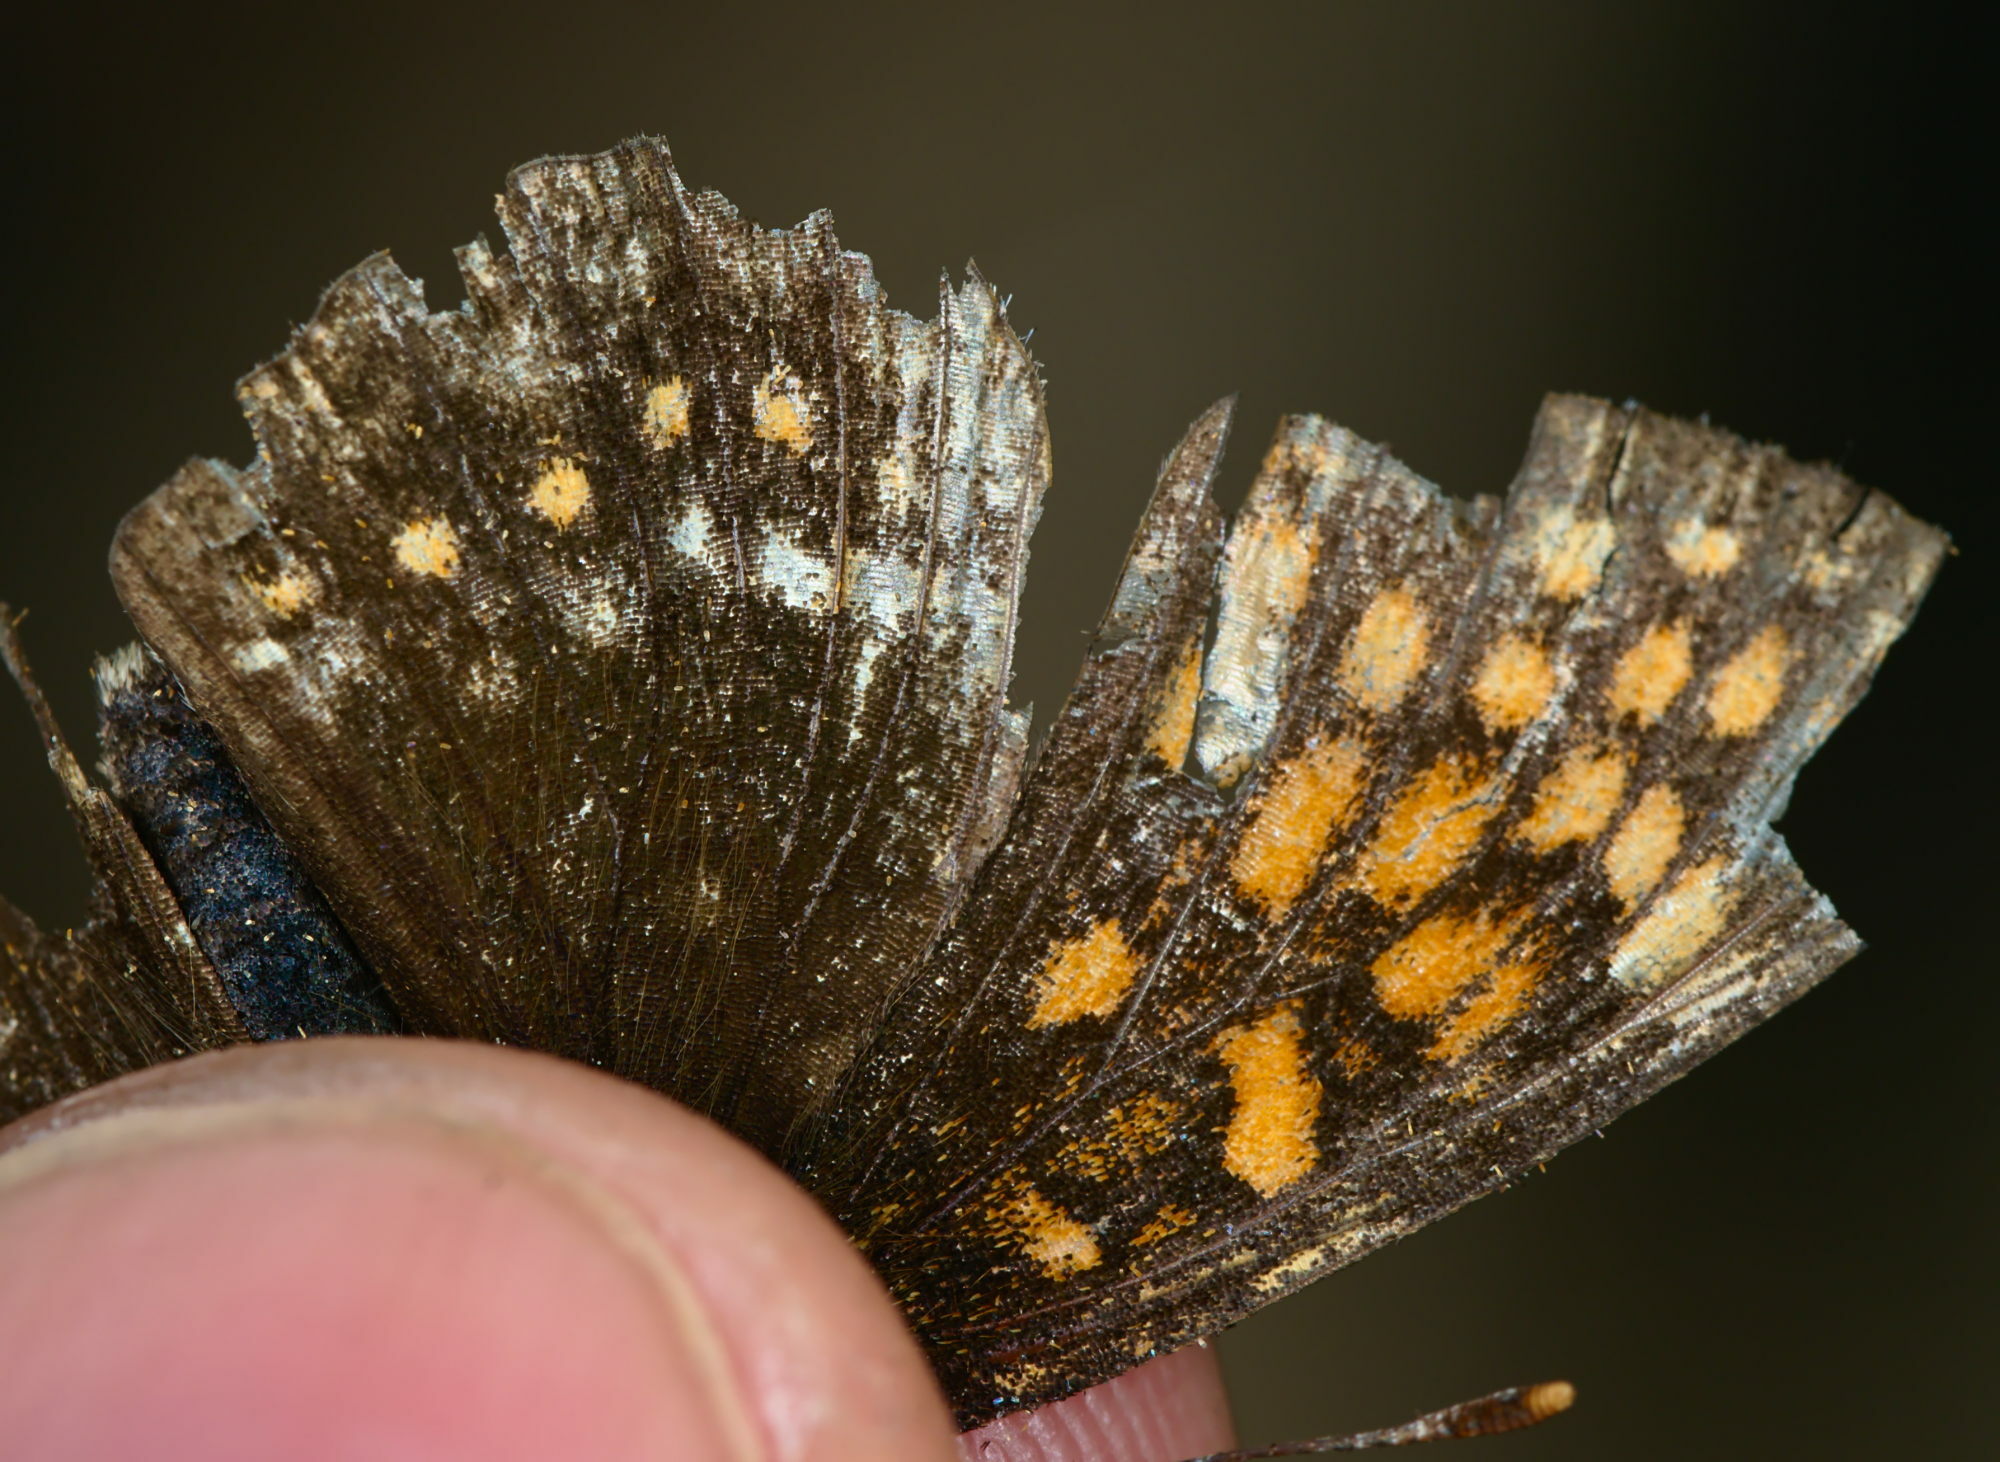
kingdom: Animalia
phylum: Arthropoda
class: Insecta
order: Lepidoptera
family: Nymphalidae
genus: Melitaea
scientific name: Melitaea diamina
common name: False heath fritillary
